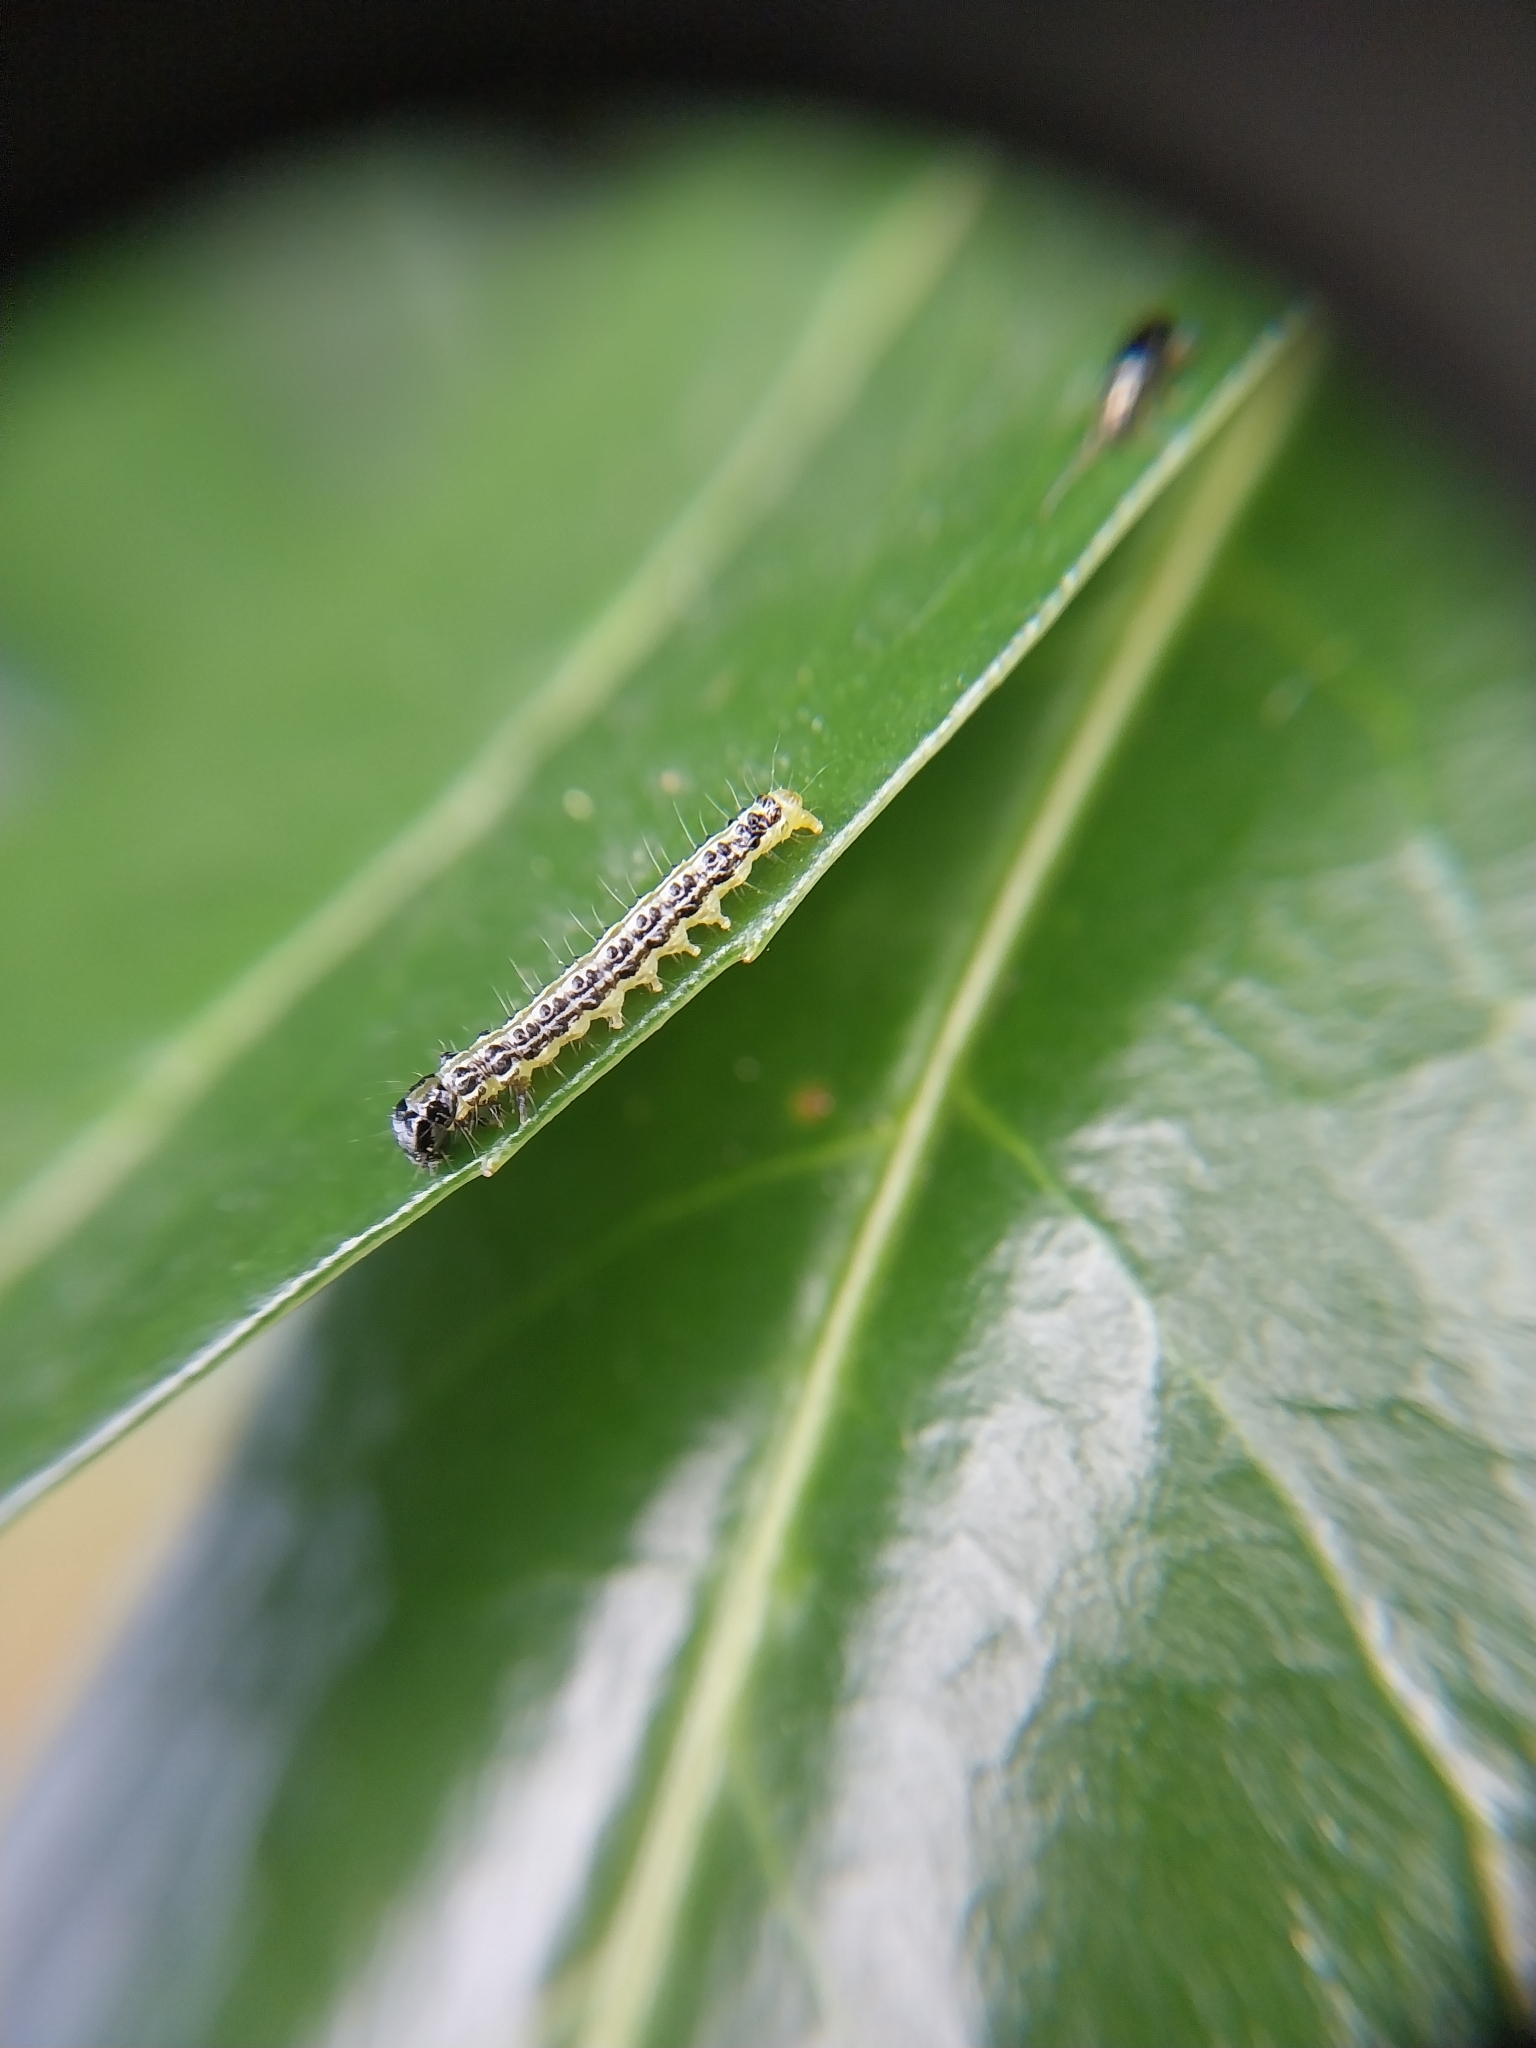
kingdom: Animalia
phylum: Arthropoda
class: Insecta
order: Lepidoptera
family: Crambidae
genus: Cydalima
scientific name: Cydalima perspectalis
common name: Box tree moth
